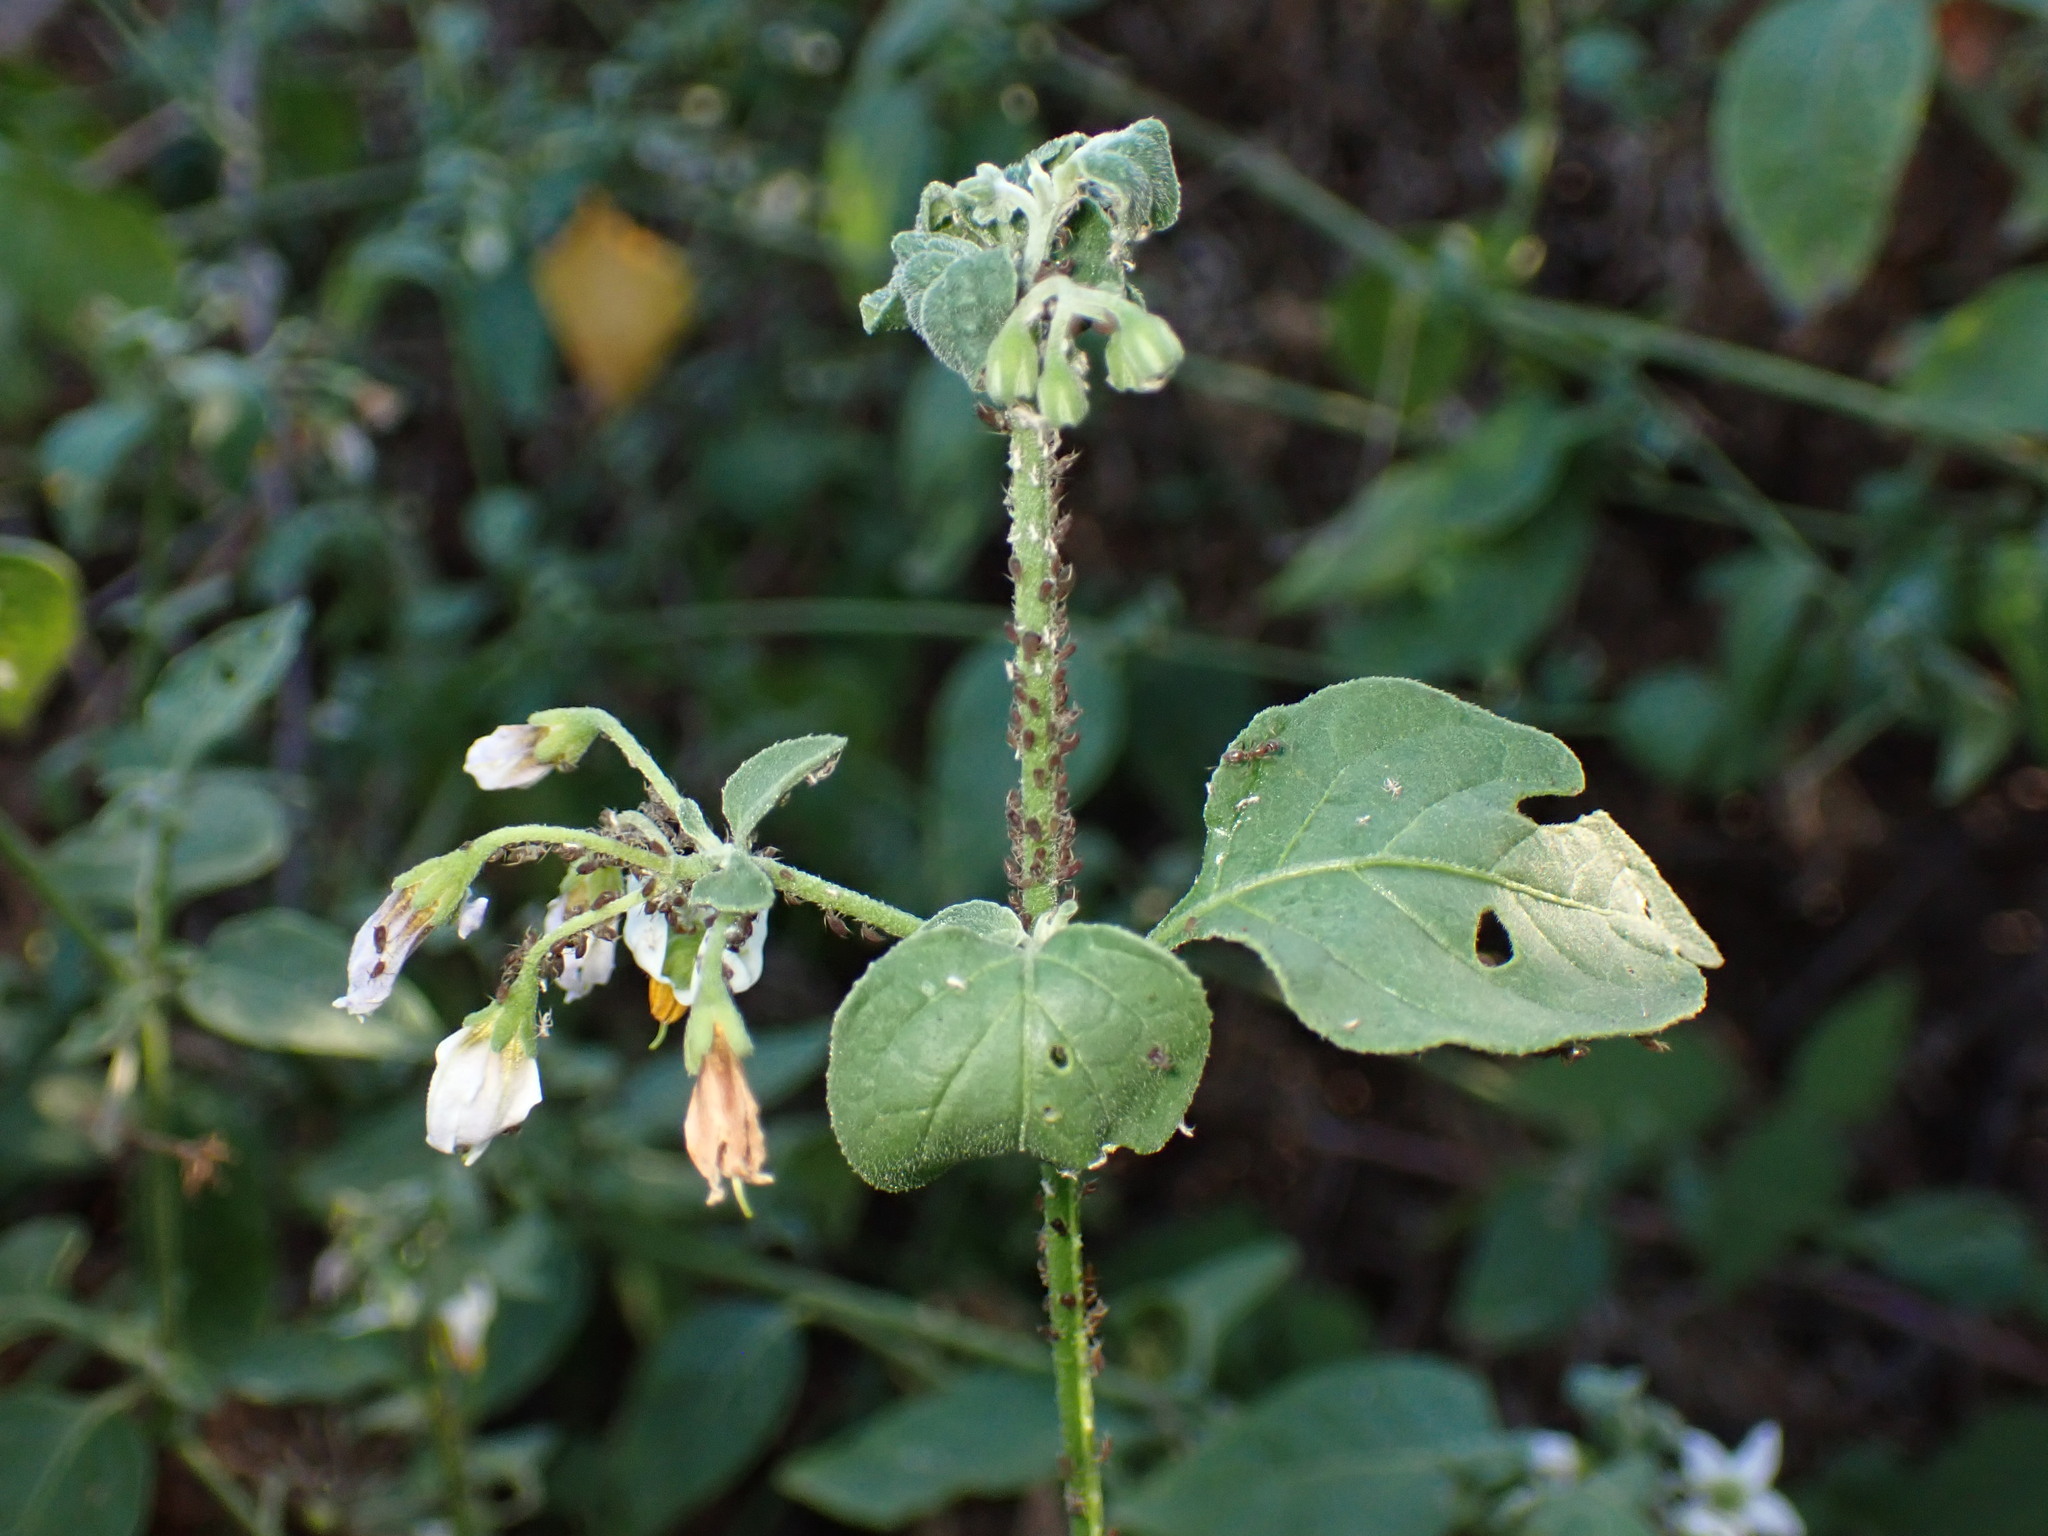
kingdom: Plantae
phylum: Tracheophyta
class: Magnoliopsida
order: Solanales
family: Solanaceae
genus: Solanum
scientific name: Solanum douglasii
